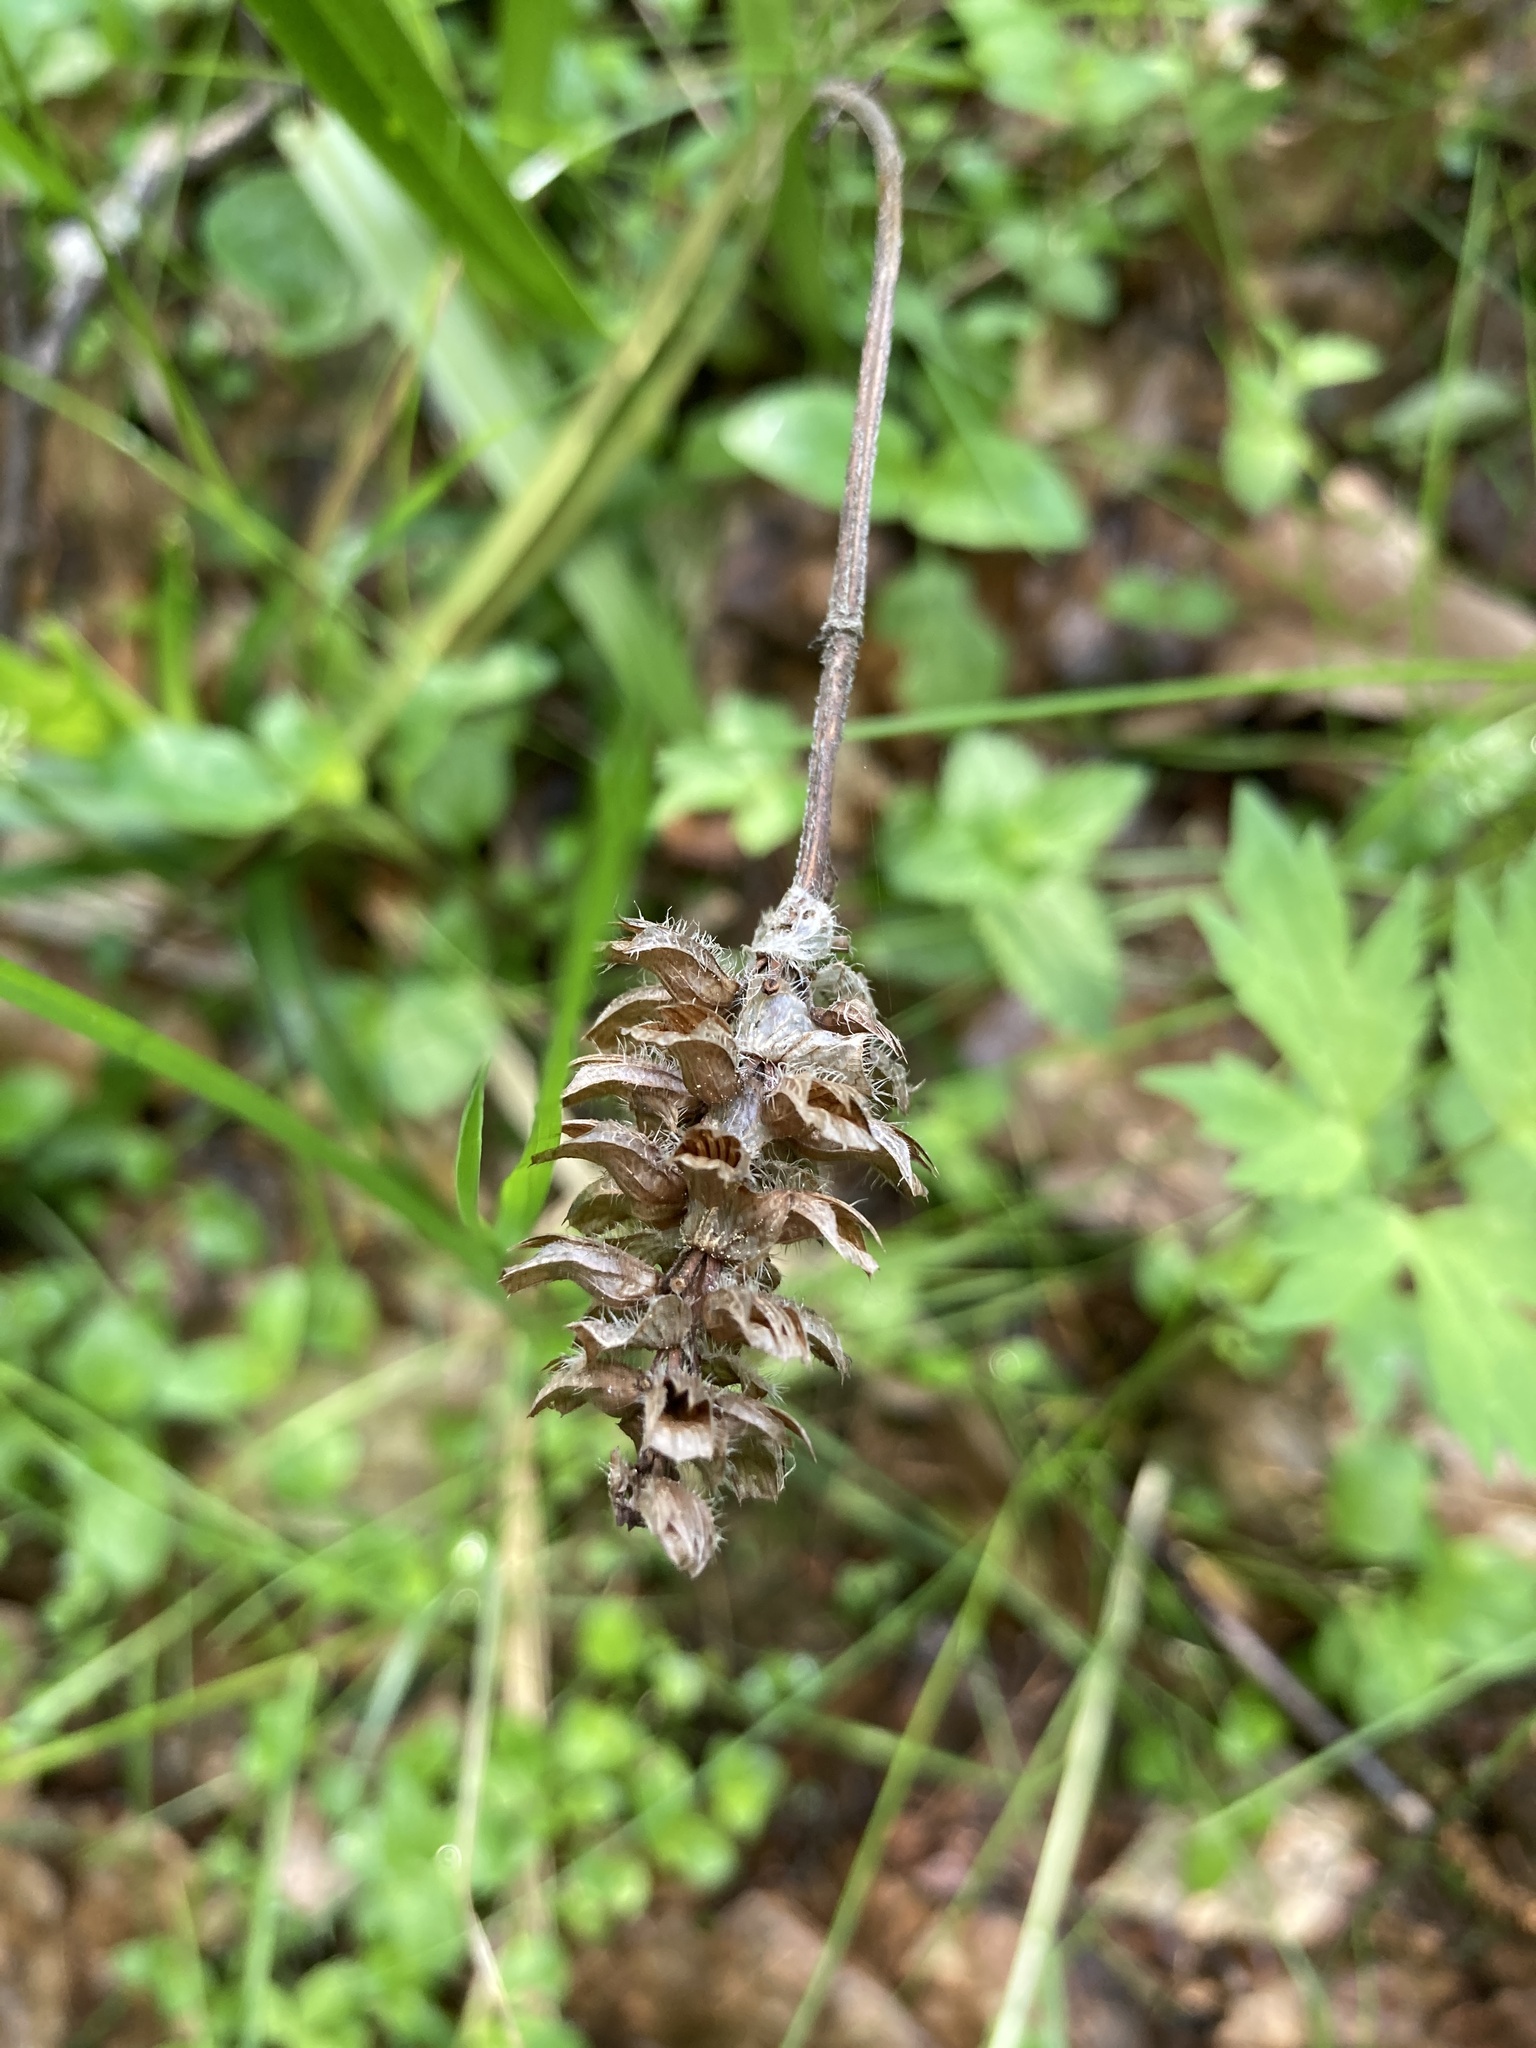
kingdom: Plantae
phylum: Tracheophyta
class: Magnoliopsida
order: Lamiales
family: Lamiaceae
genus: Prunella
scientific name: Prunella vulgaris
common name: Heal-all
